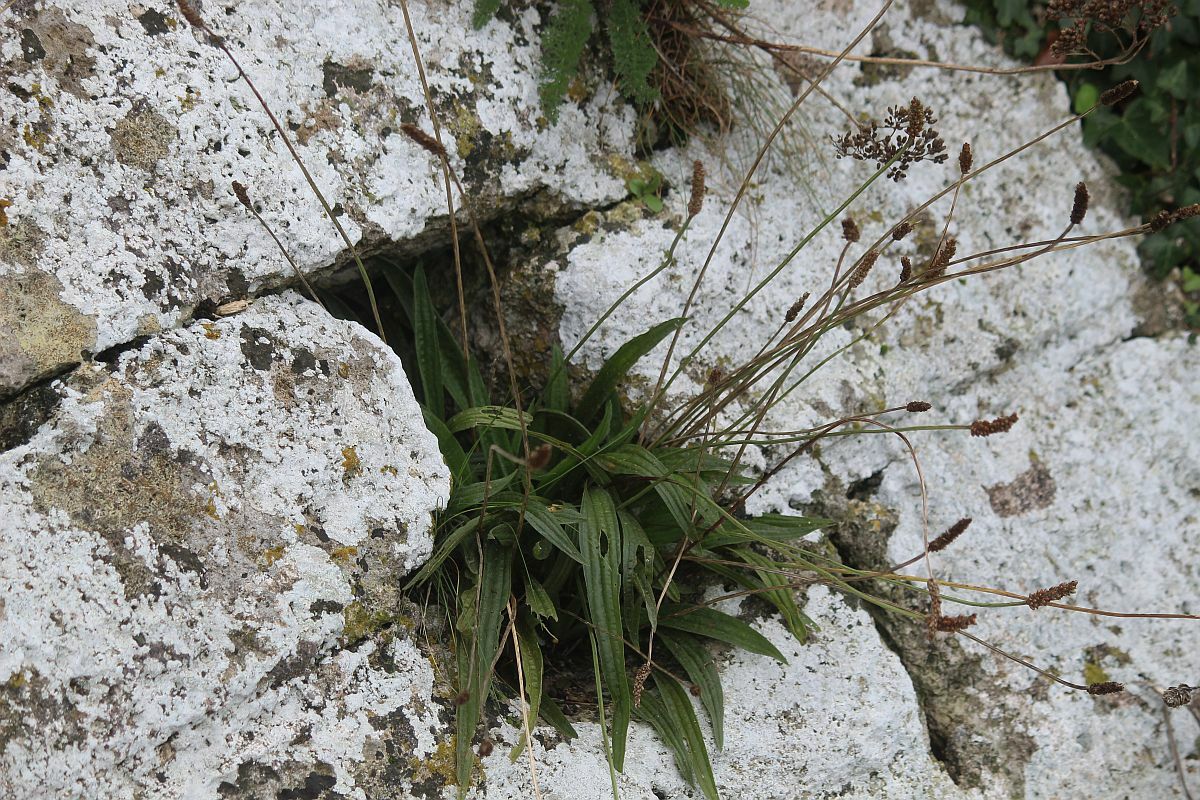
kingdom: Plantae
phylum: Tracheophyta
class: Magnoliopsida
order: Lamiales
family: Plantaginaceae
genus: Plantago
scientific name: Plantago lanceolata
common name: Ribwort plantain
